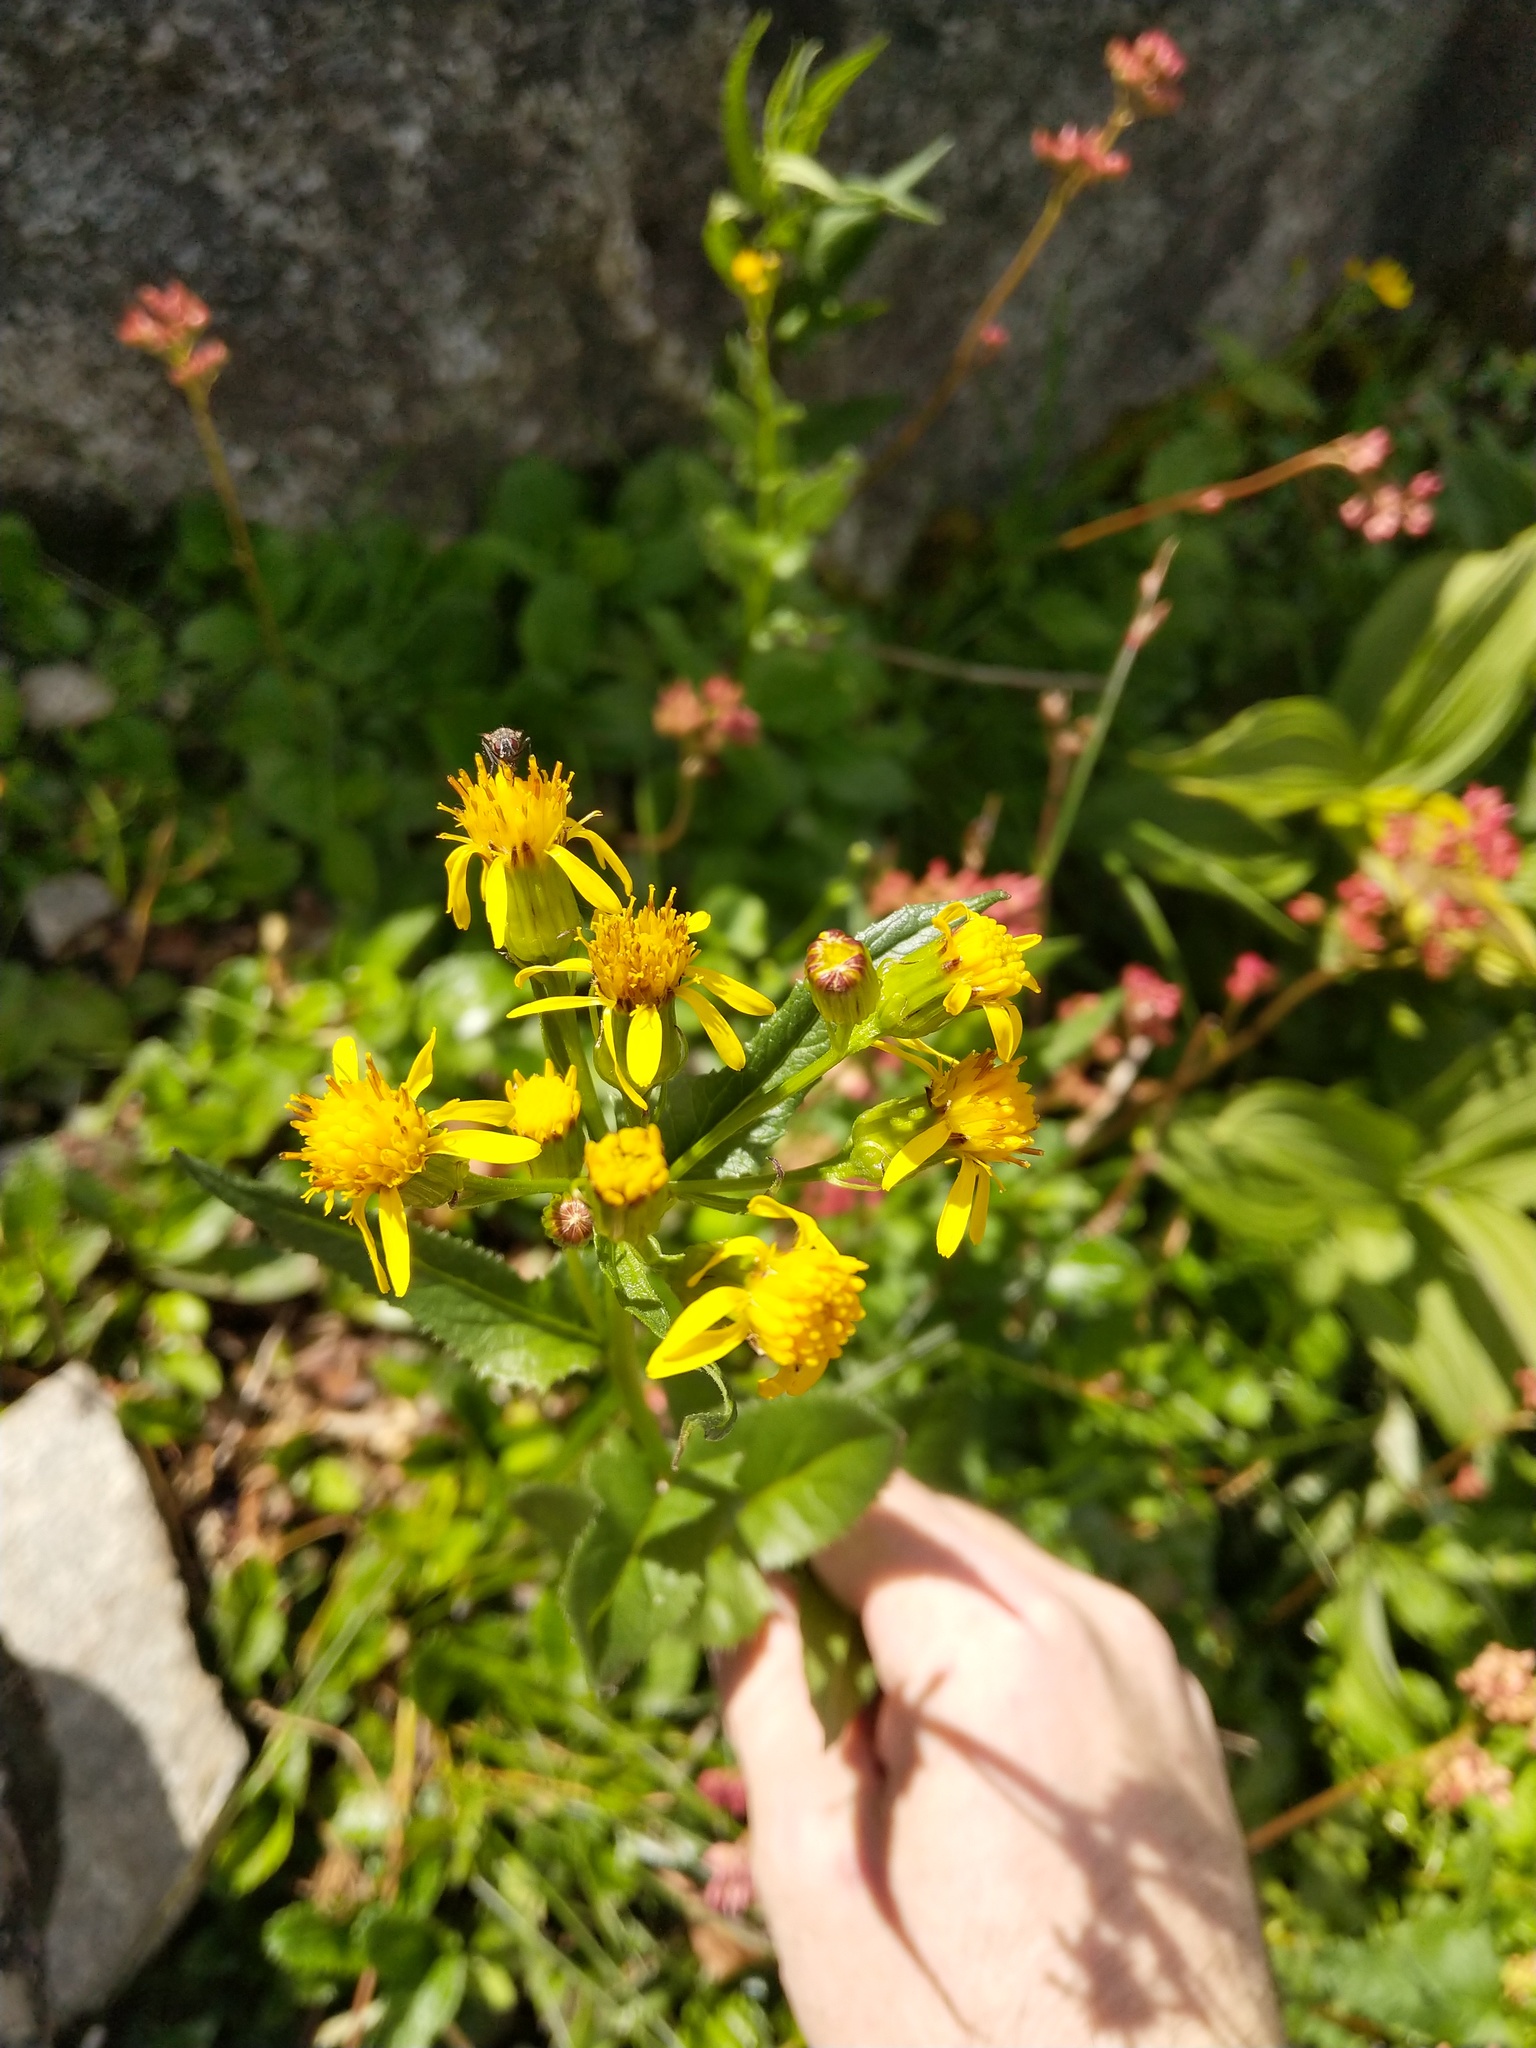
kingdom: Plantae
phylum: Tracheophyta
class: Magnoliopsida
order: Asterales
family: Asteraceae
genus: Senecio
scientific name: Senecio triangularis
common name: Arrowleaf butterweed
